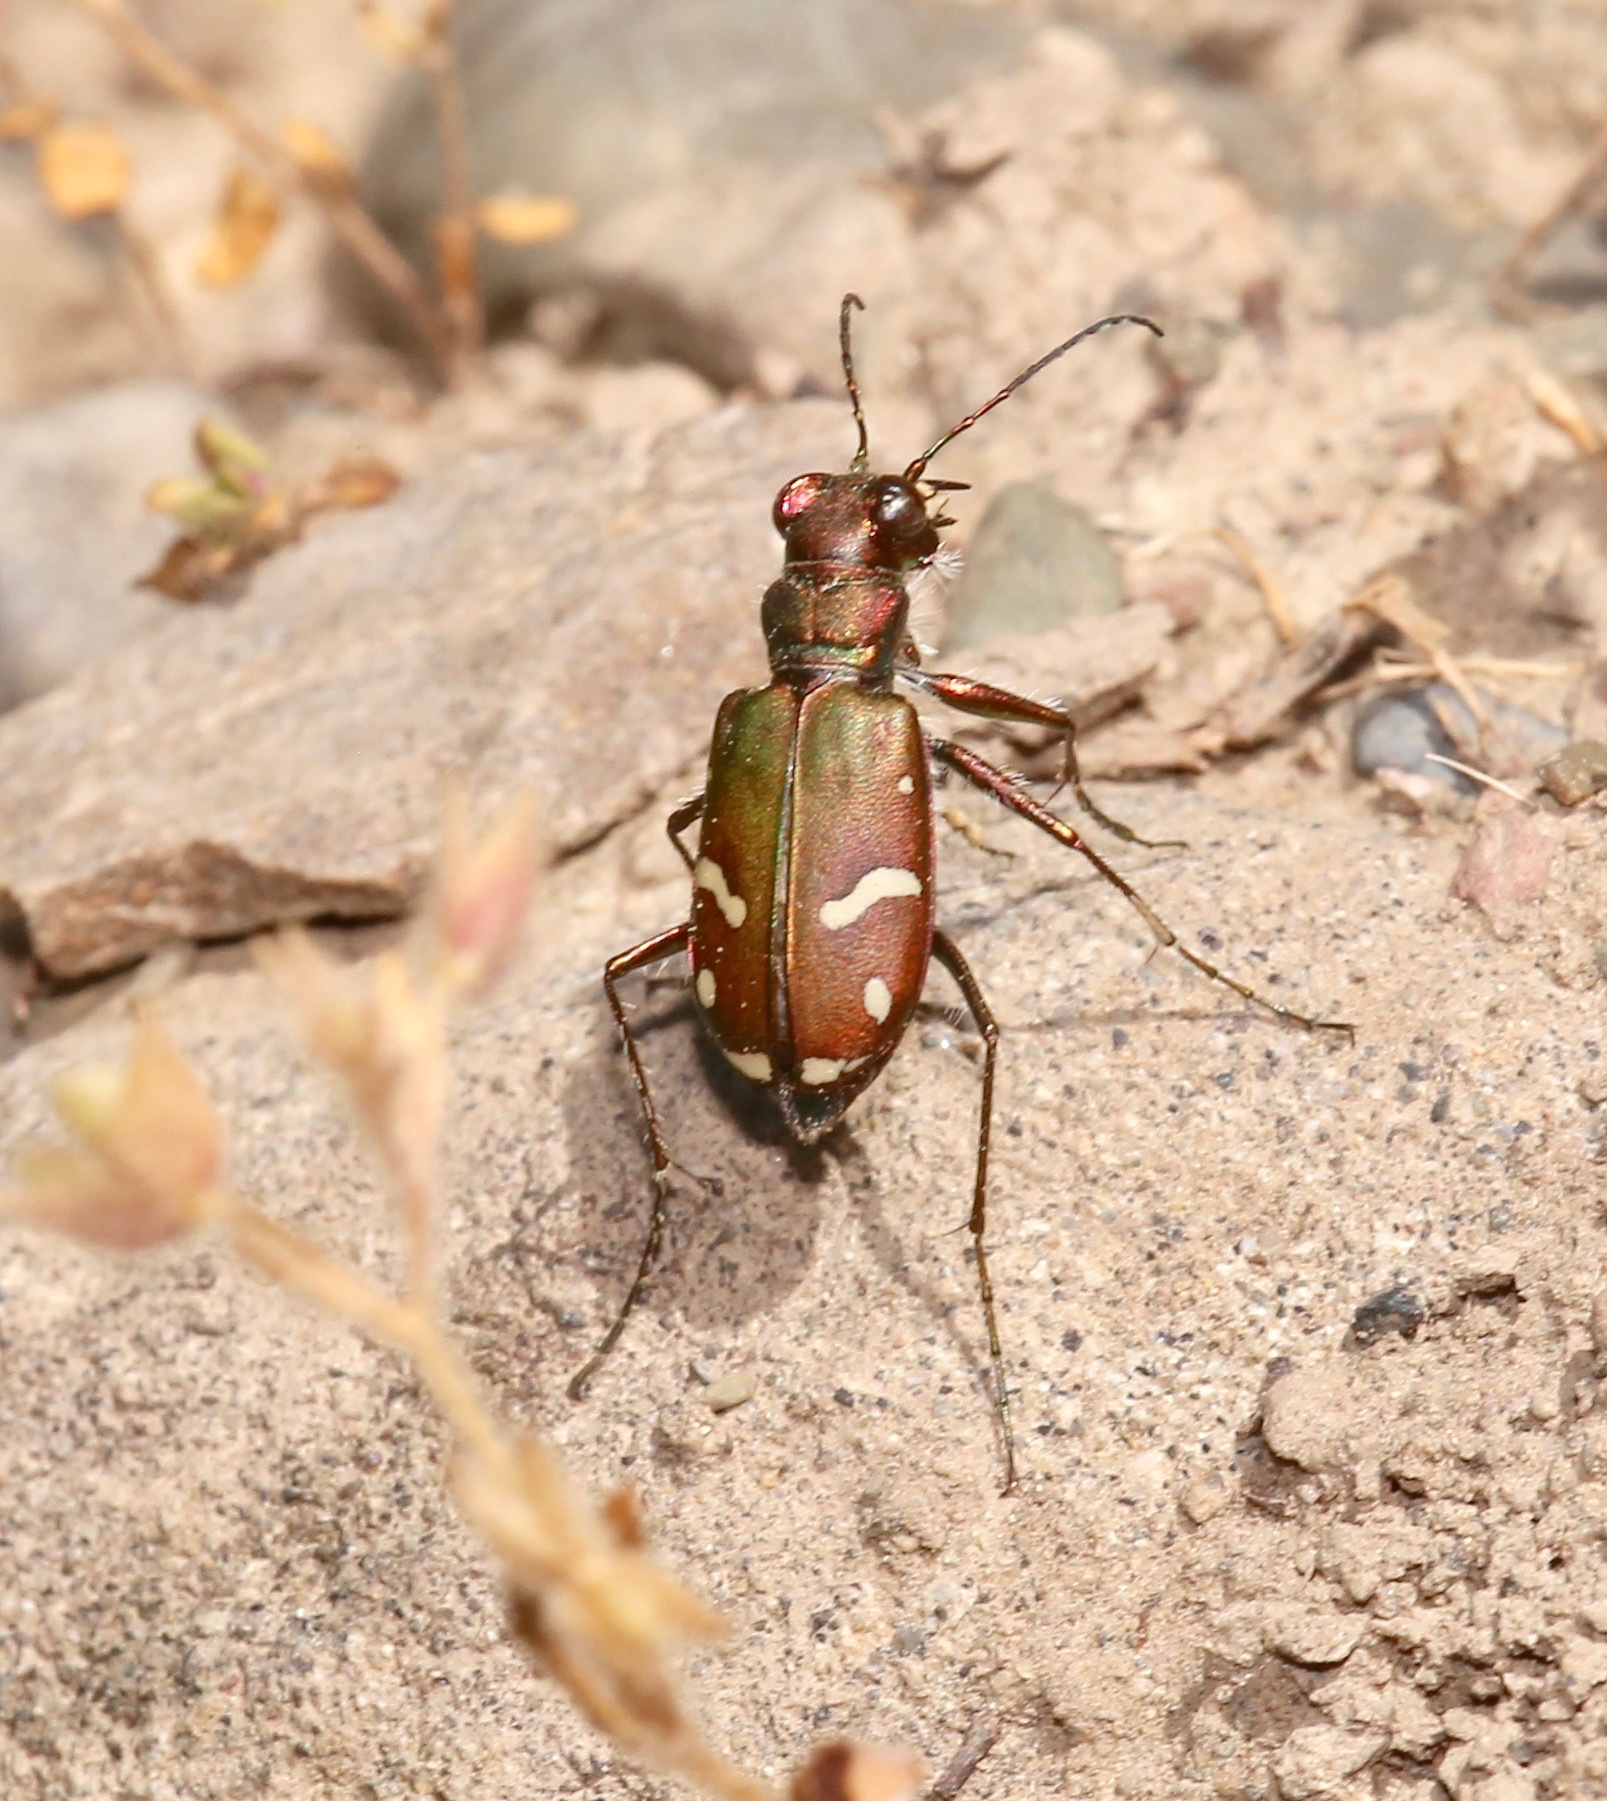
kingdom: Animalia
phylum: Arthropoda
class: Insecta
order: Coleoptera
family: Carabidae
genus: Cicindela
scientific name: Cicindela purpurea
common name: Cow path tiger beetle
